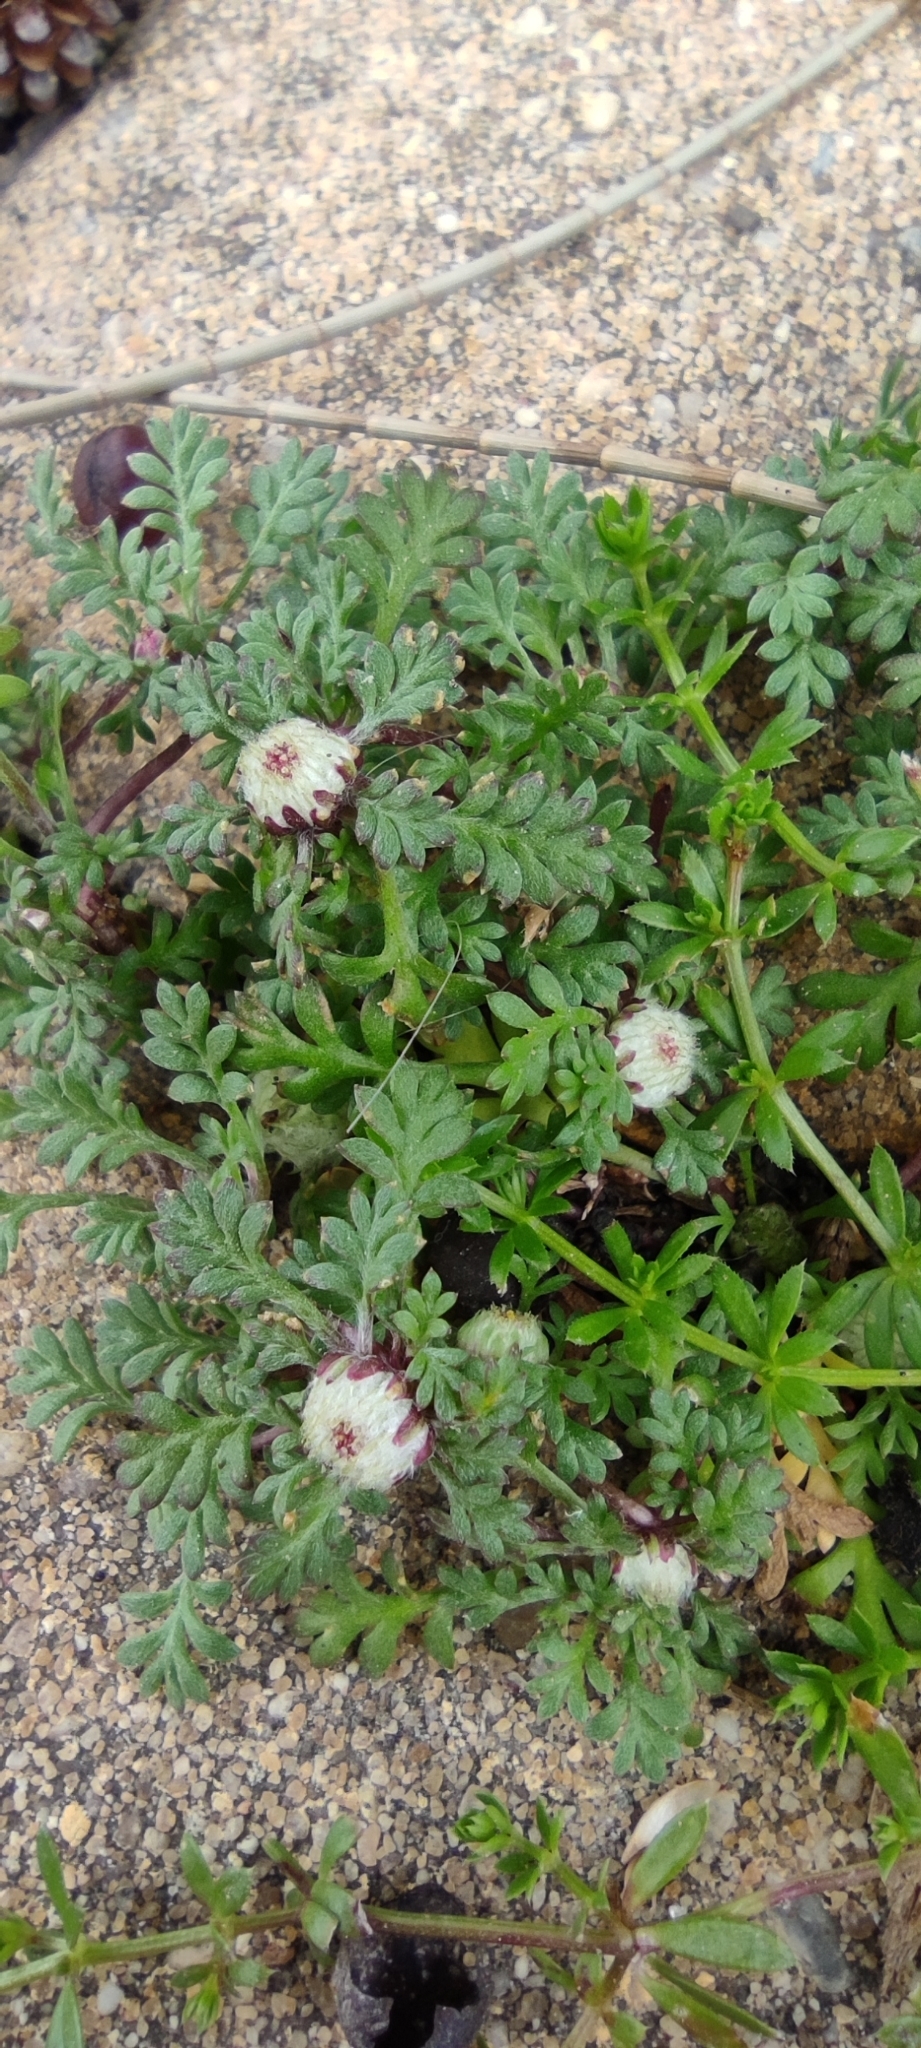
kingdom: Plantae
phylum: Tracheophyta
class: Magnoliopsida
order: Asterales
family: Asteraceae
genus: Soliva
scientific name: Soliva stolonifera
